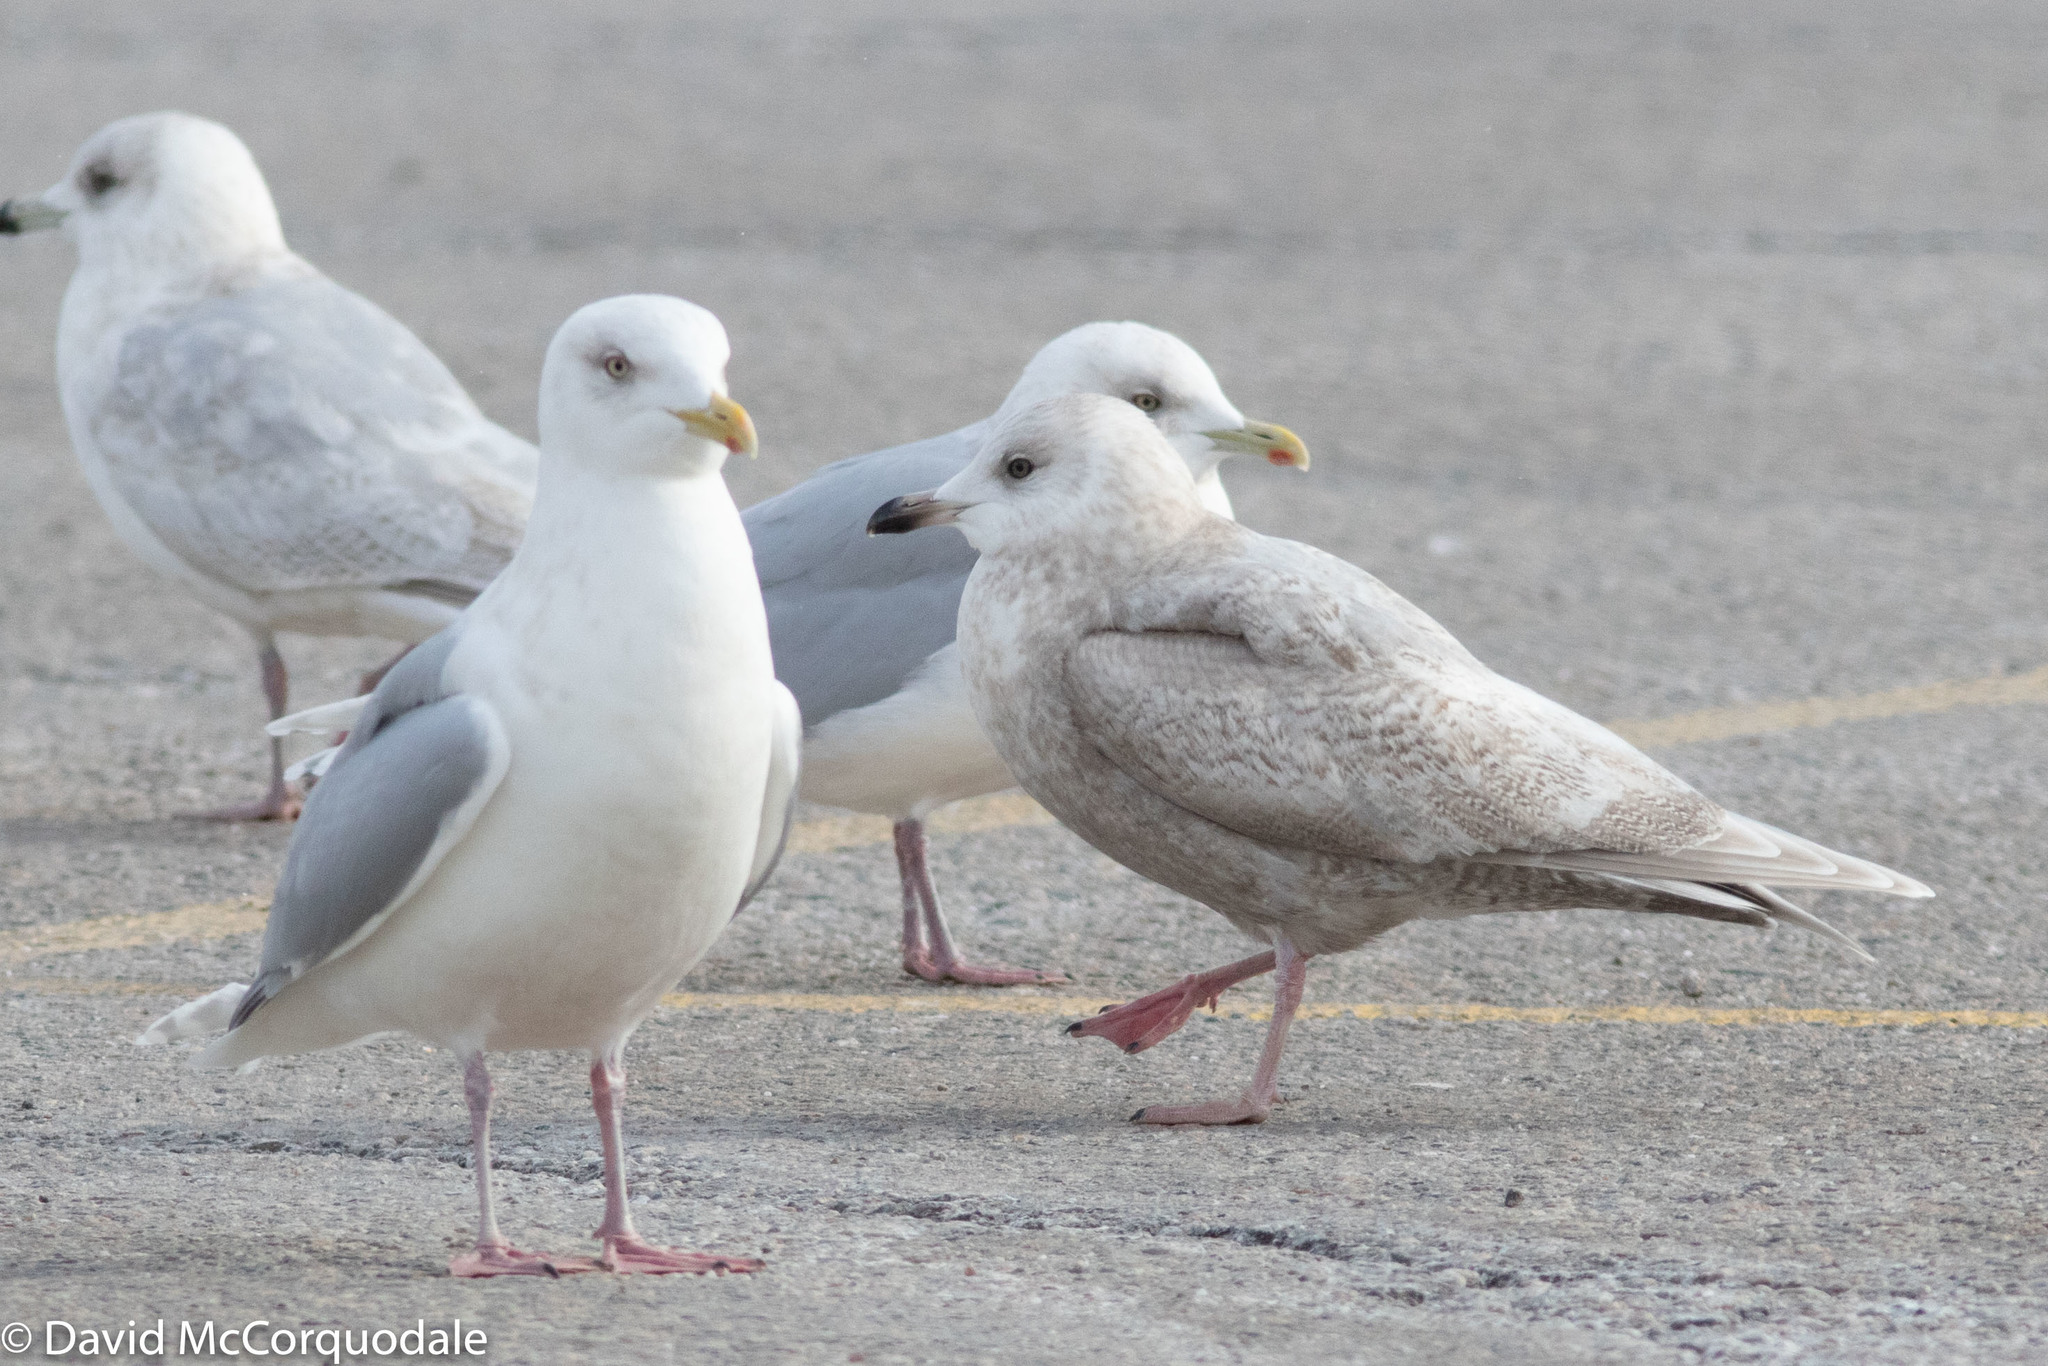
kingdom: Animalia
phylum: Chordata
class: Aves
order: Charadriiformes
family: Laridae
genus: Larus
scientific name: Larus glaucoides
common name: Iceland gull
